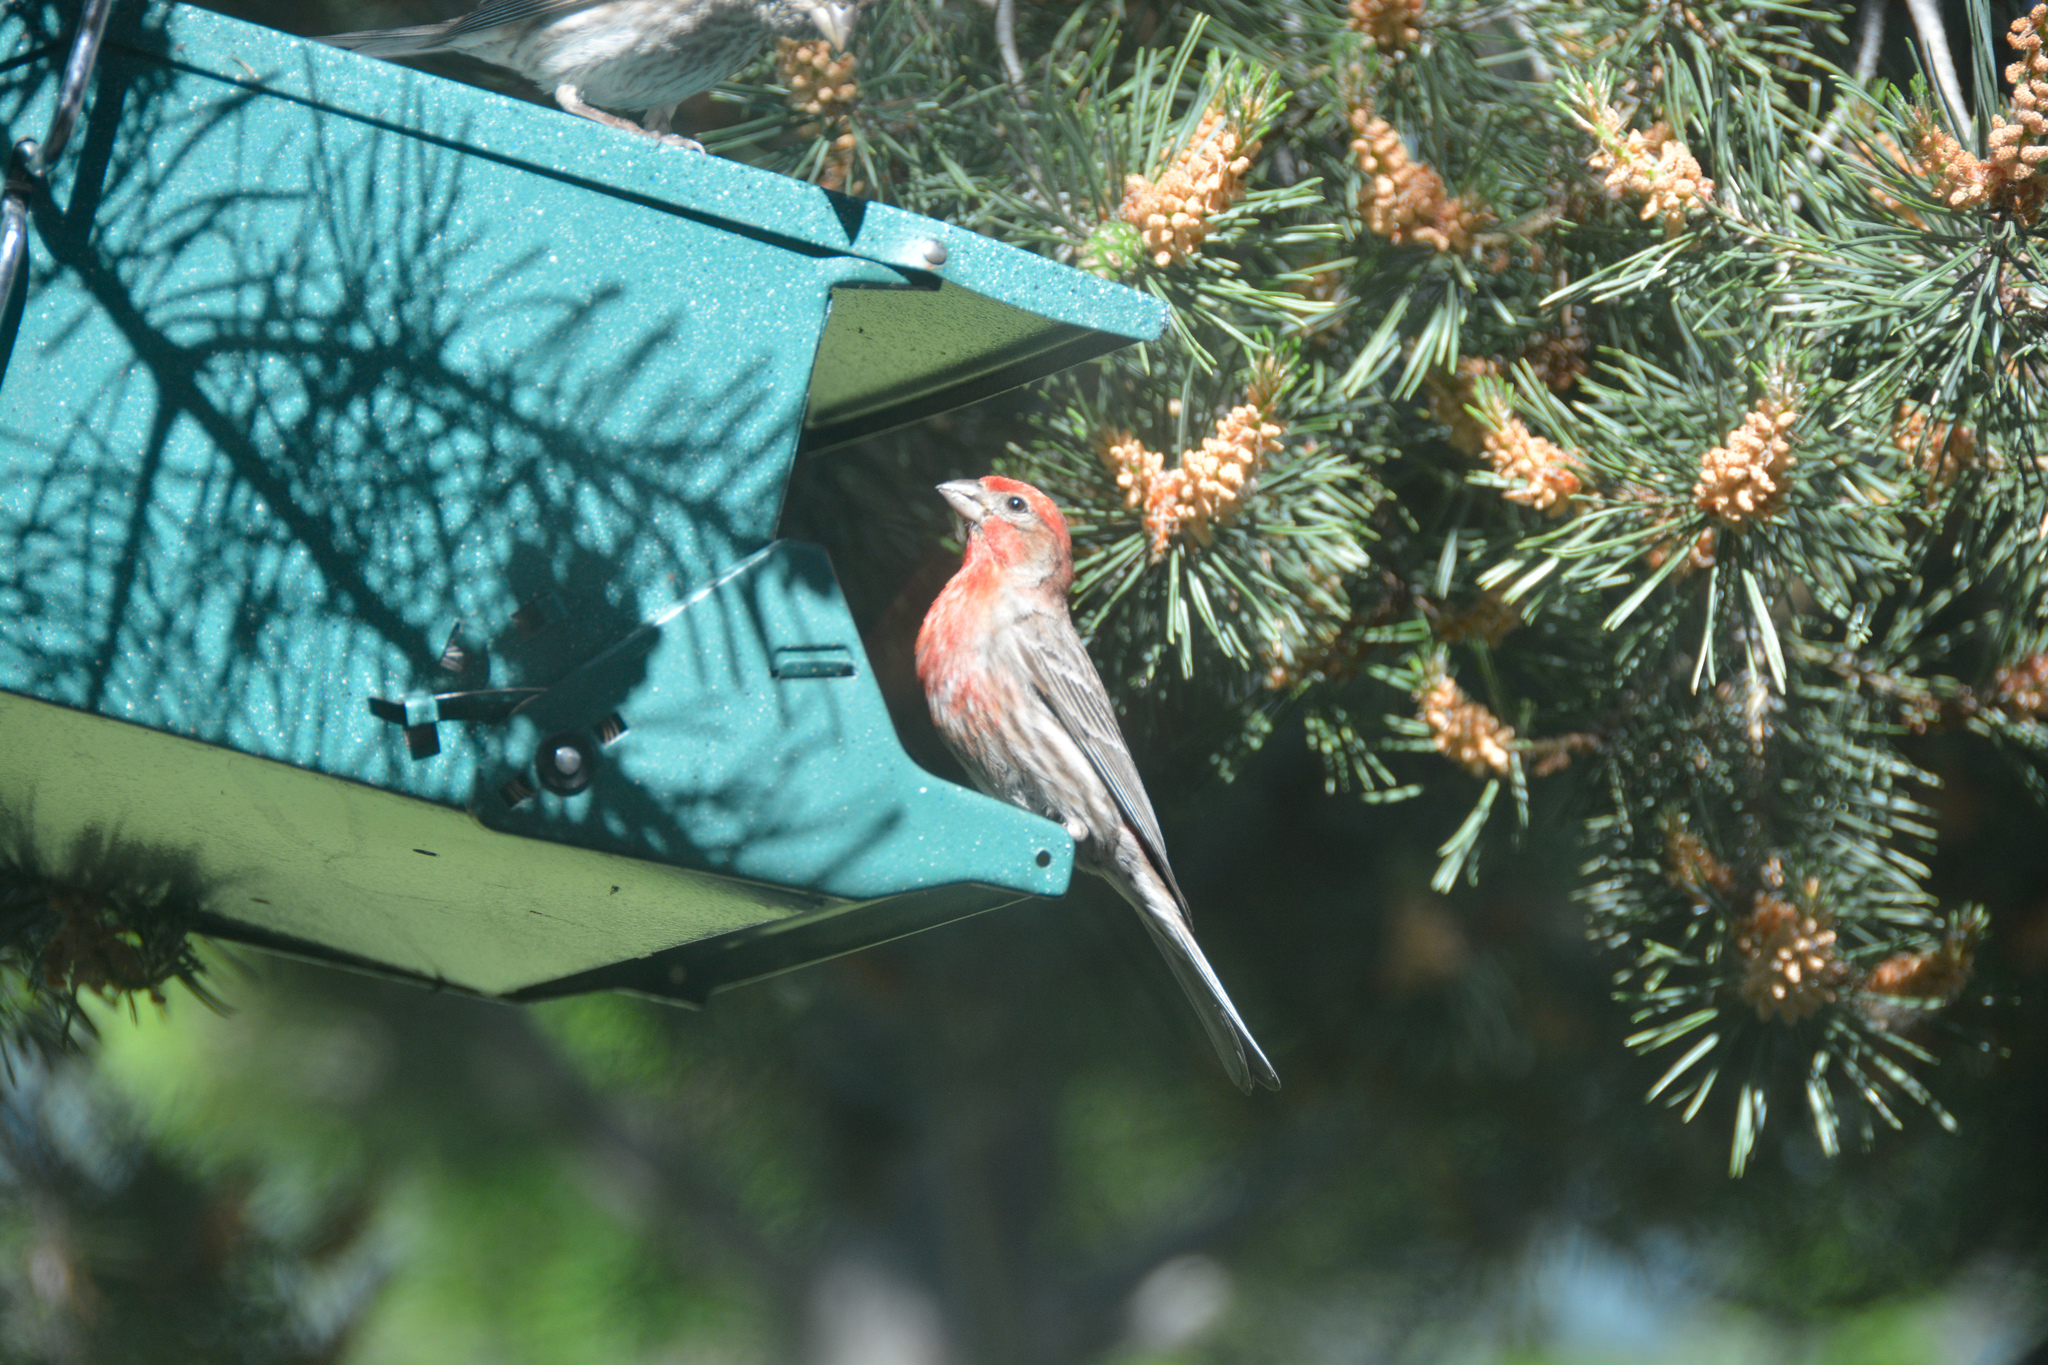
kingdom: Animalia
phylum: Chordata
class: Aves
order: Passeriformes
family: Fringillidae
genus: Haemorhous
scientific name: Haemorhous mexicanus
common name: House finch
